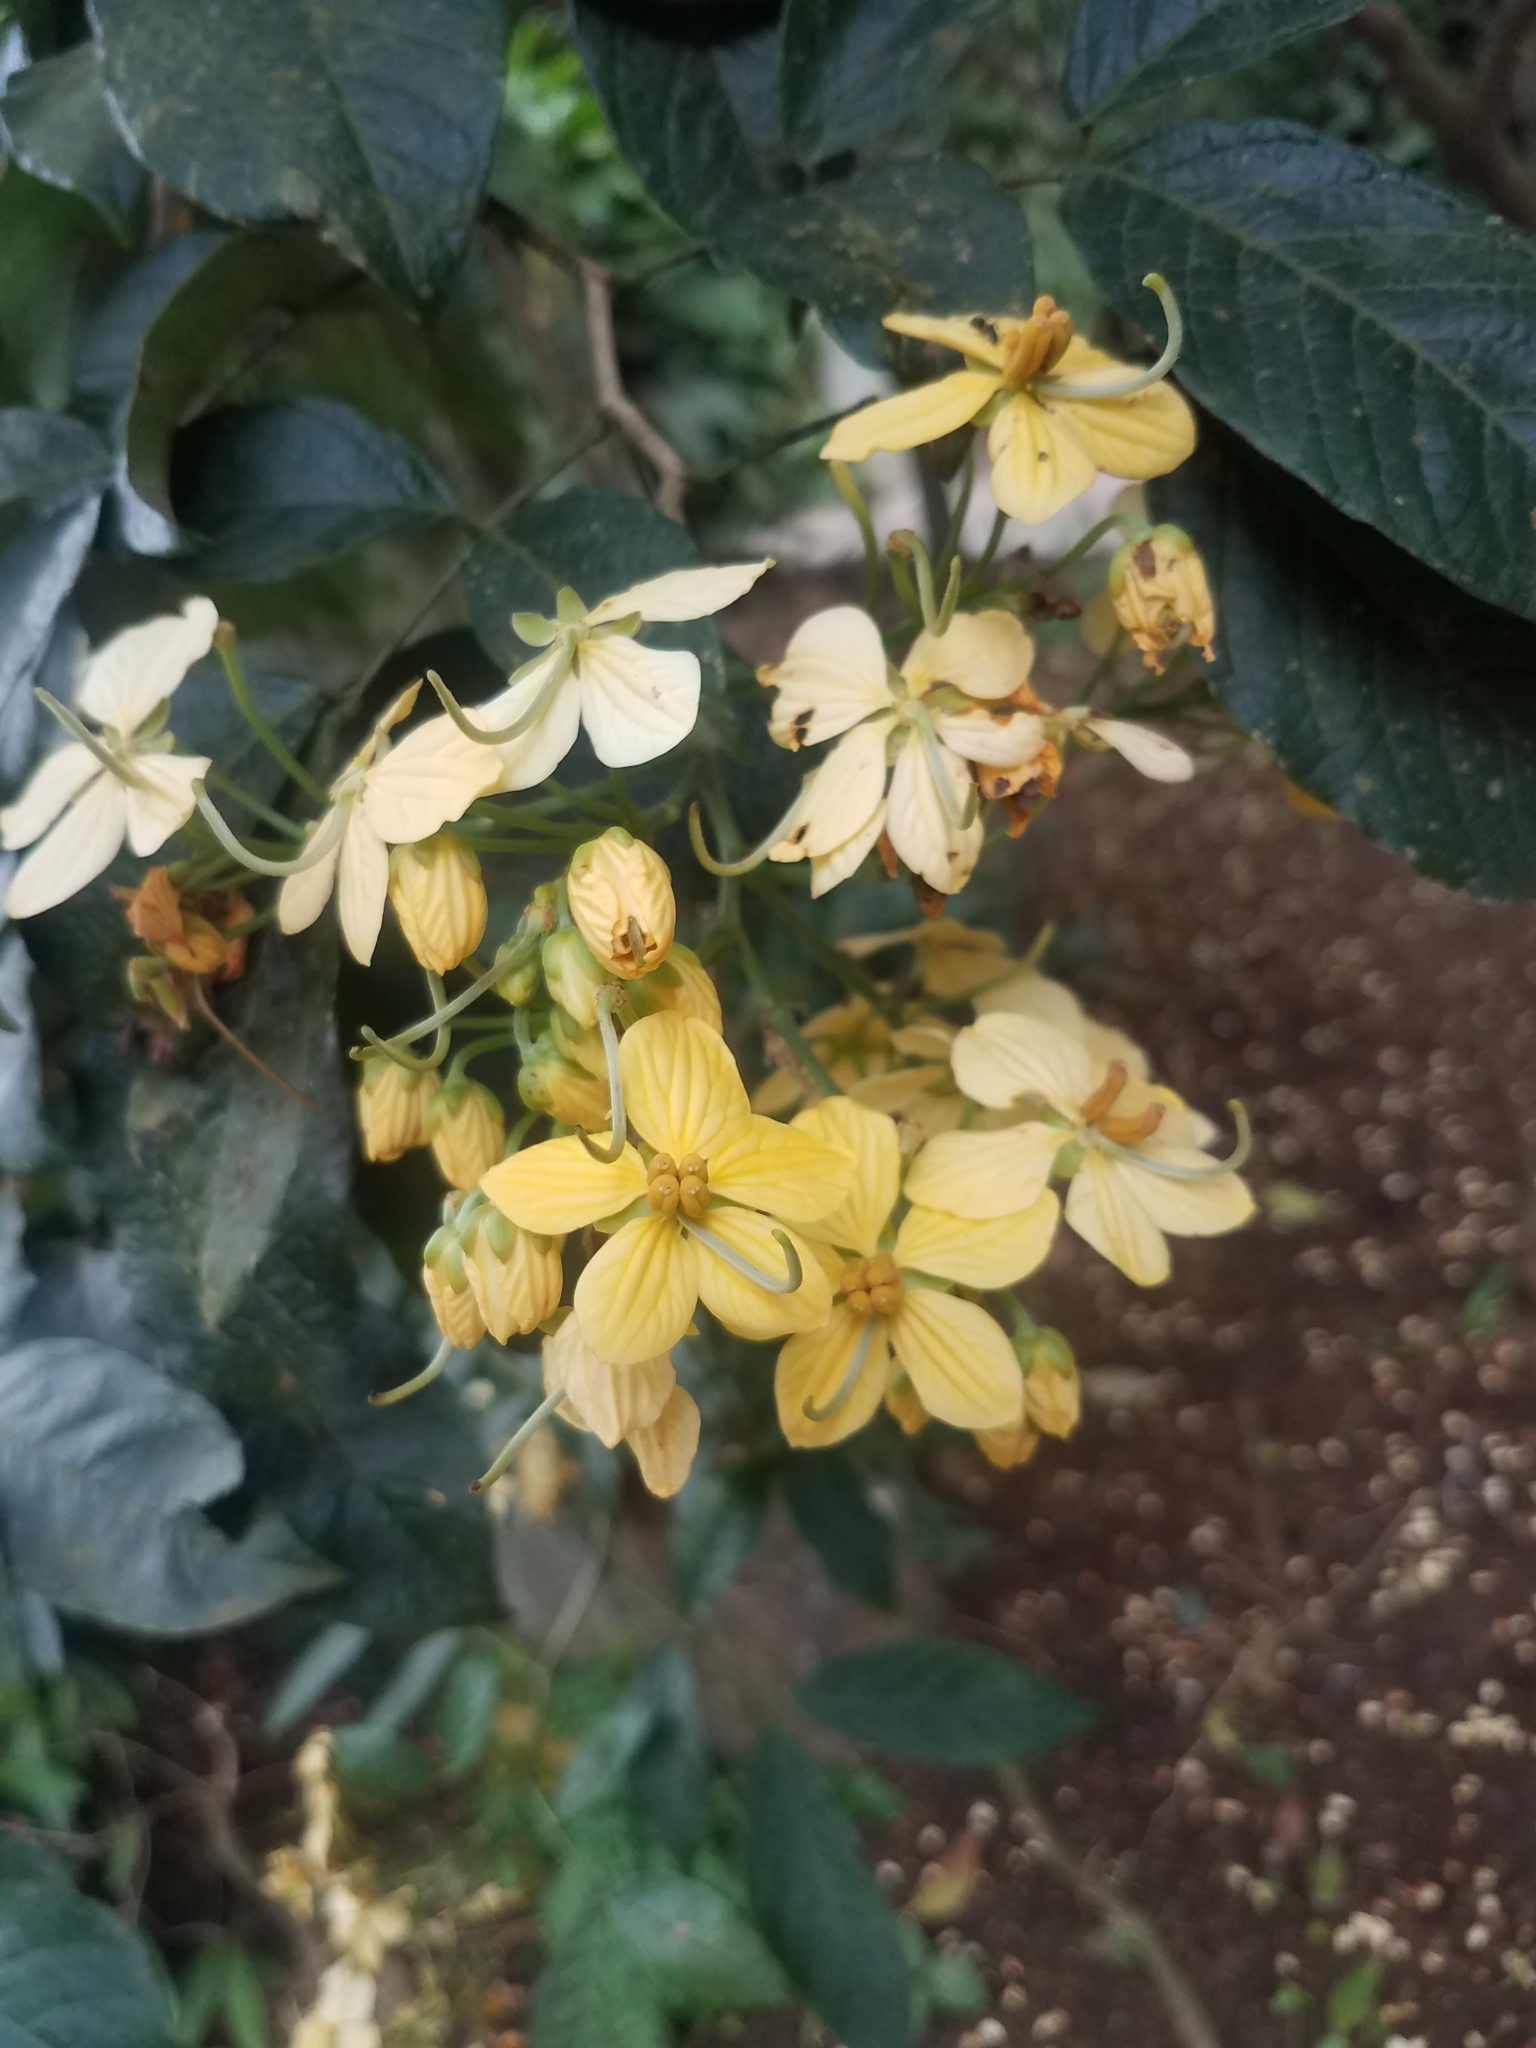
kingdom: Plantae
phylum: Tracheophyta
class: Magnoliopsida
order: Fabales
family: Fabaceae
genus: Senna
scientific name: Senna hayesiana
